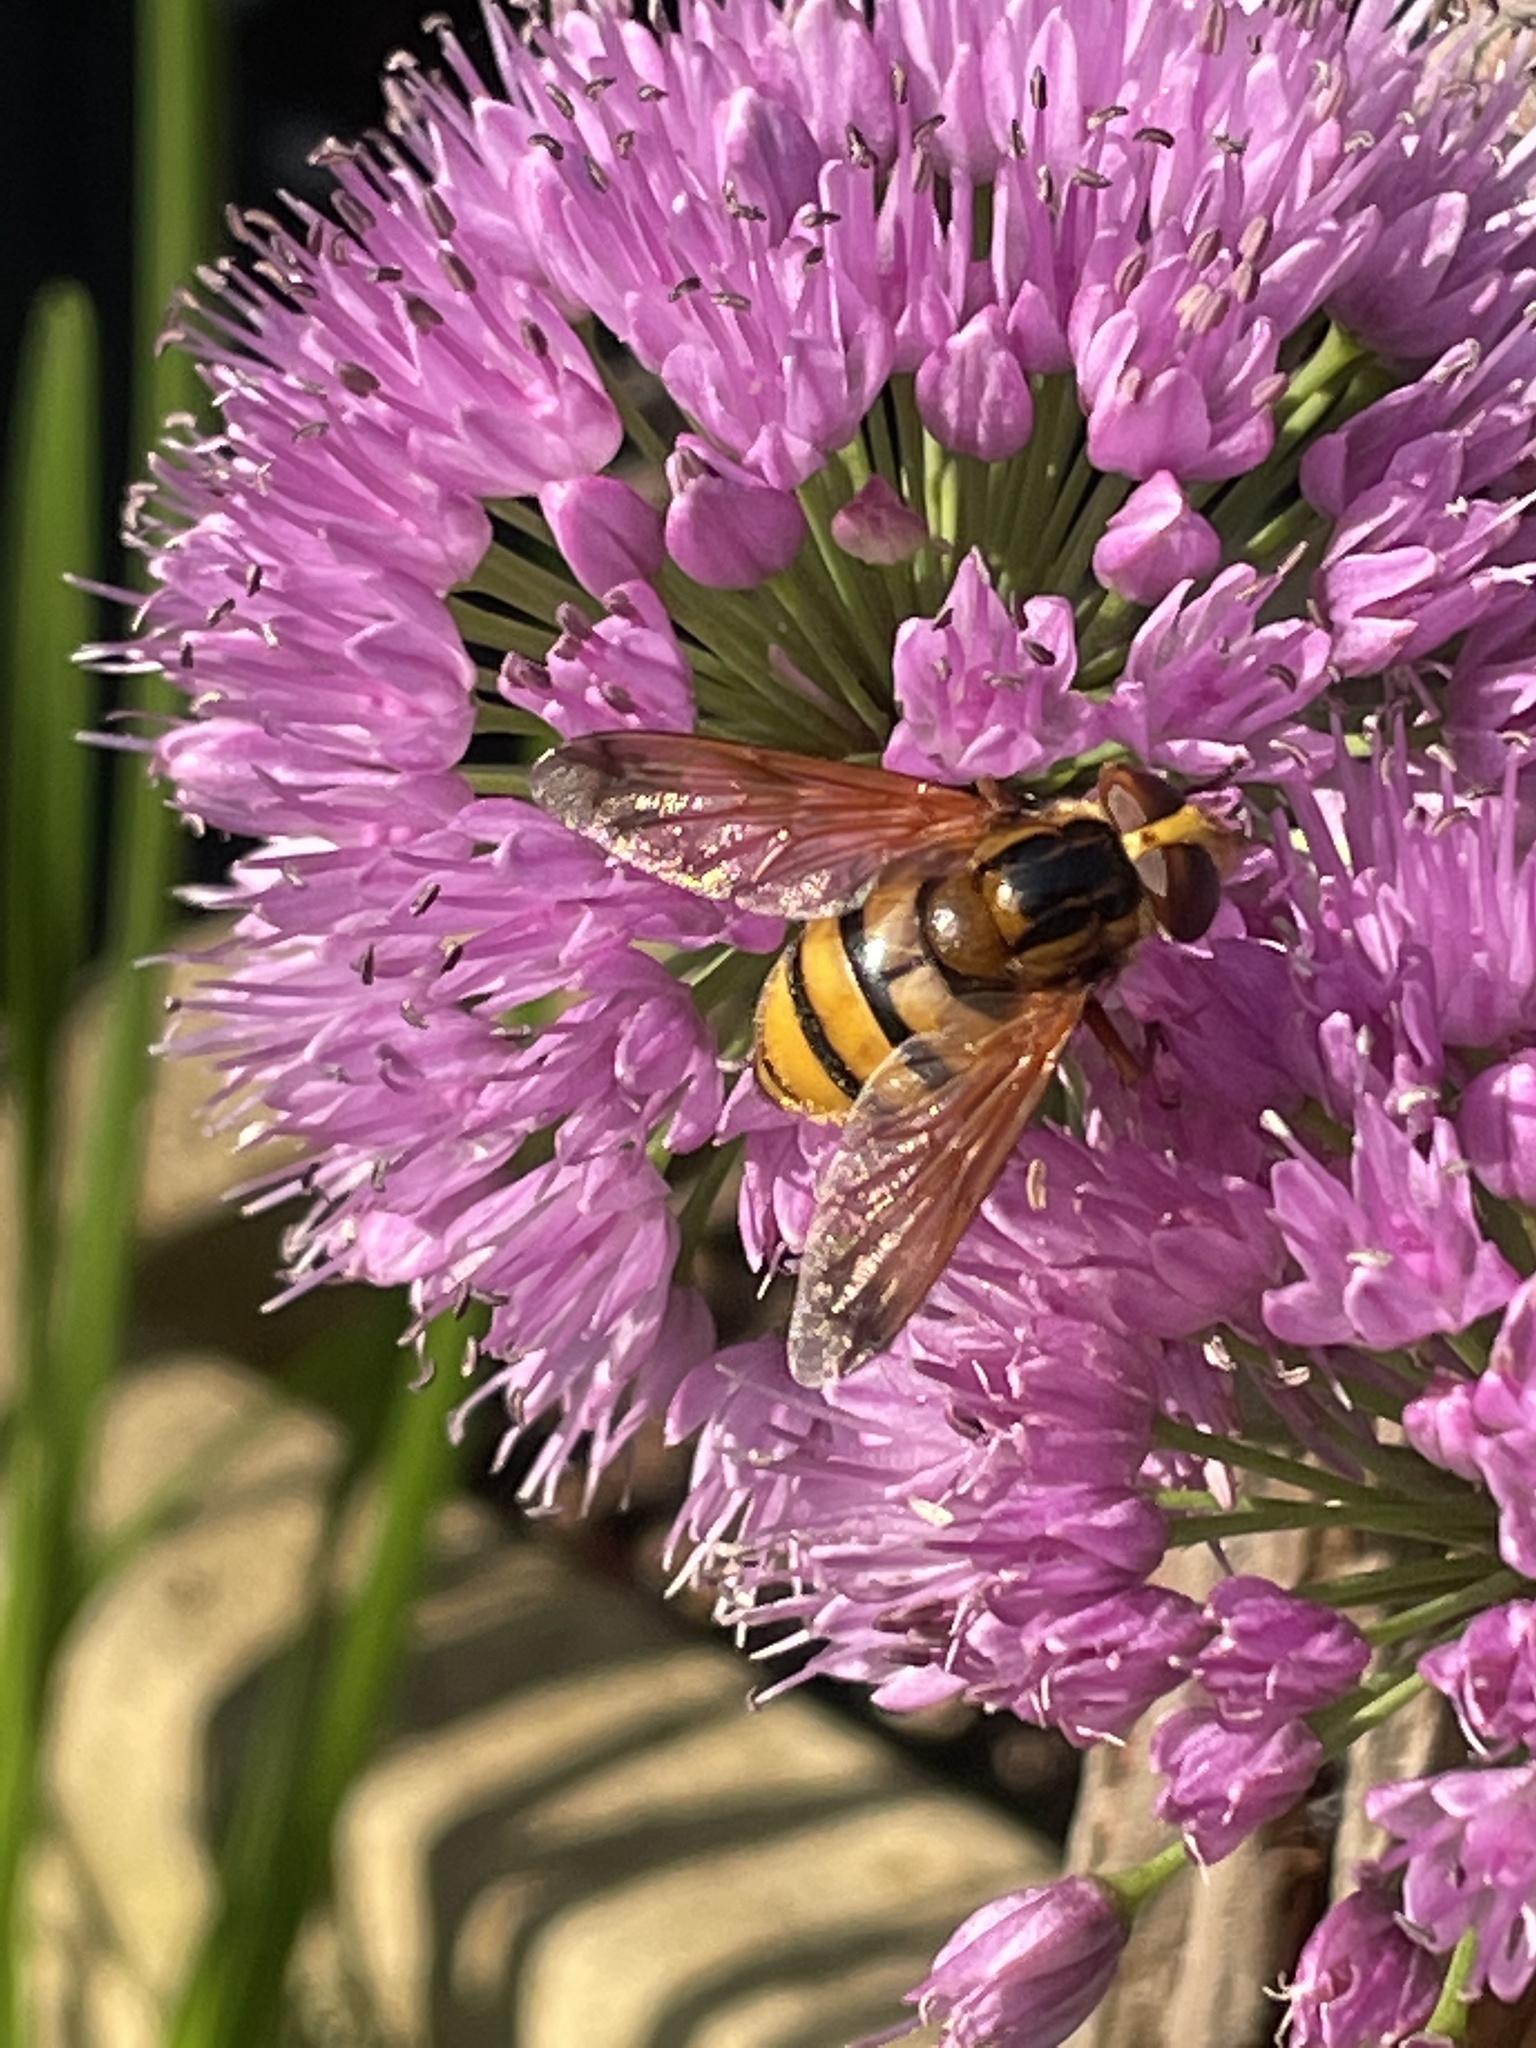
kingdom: Animalia
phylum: Arthropoda
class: Insecta
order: Diptera
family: Syrphidae
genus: Volucella
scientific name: Volucella inanis
